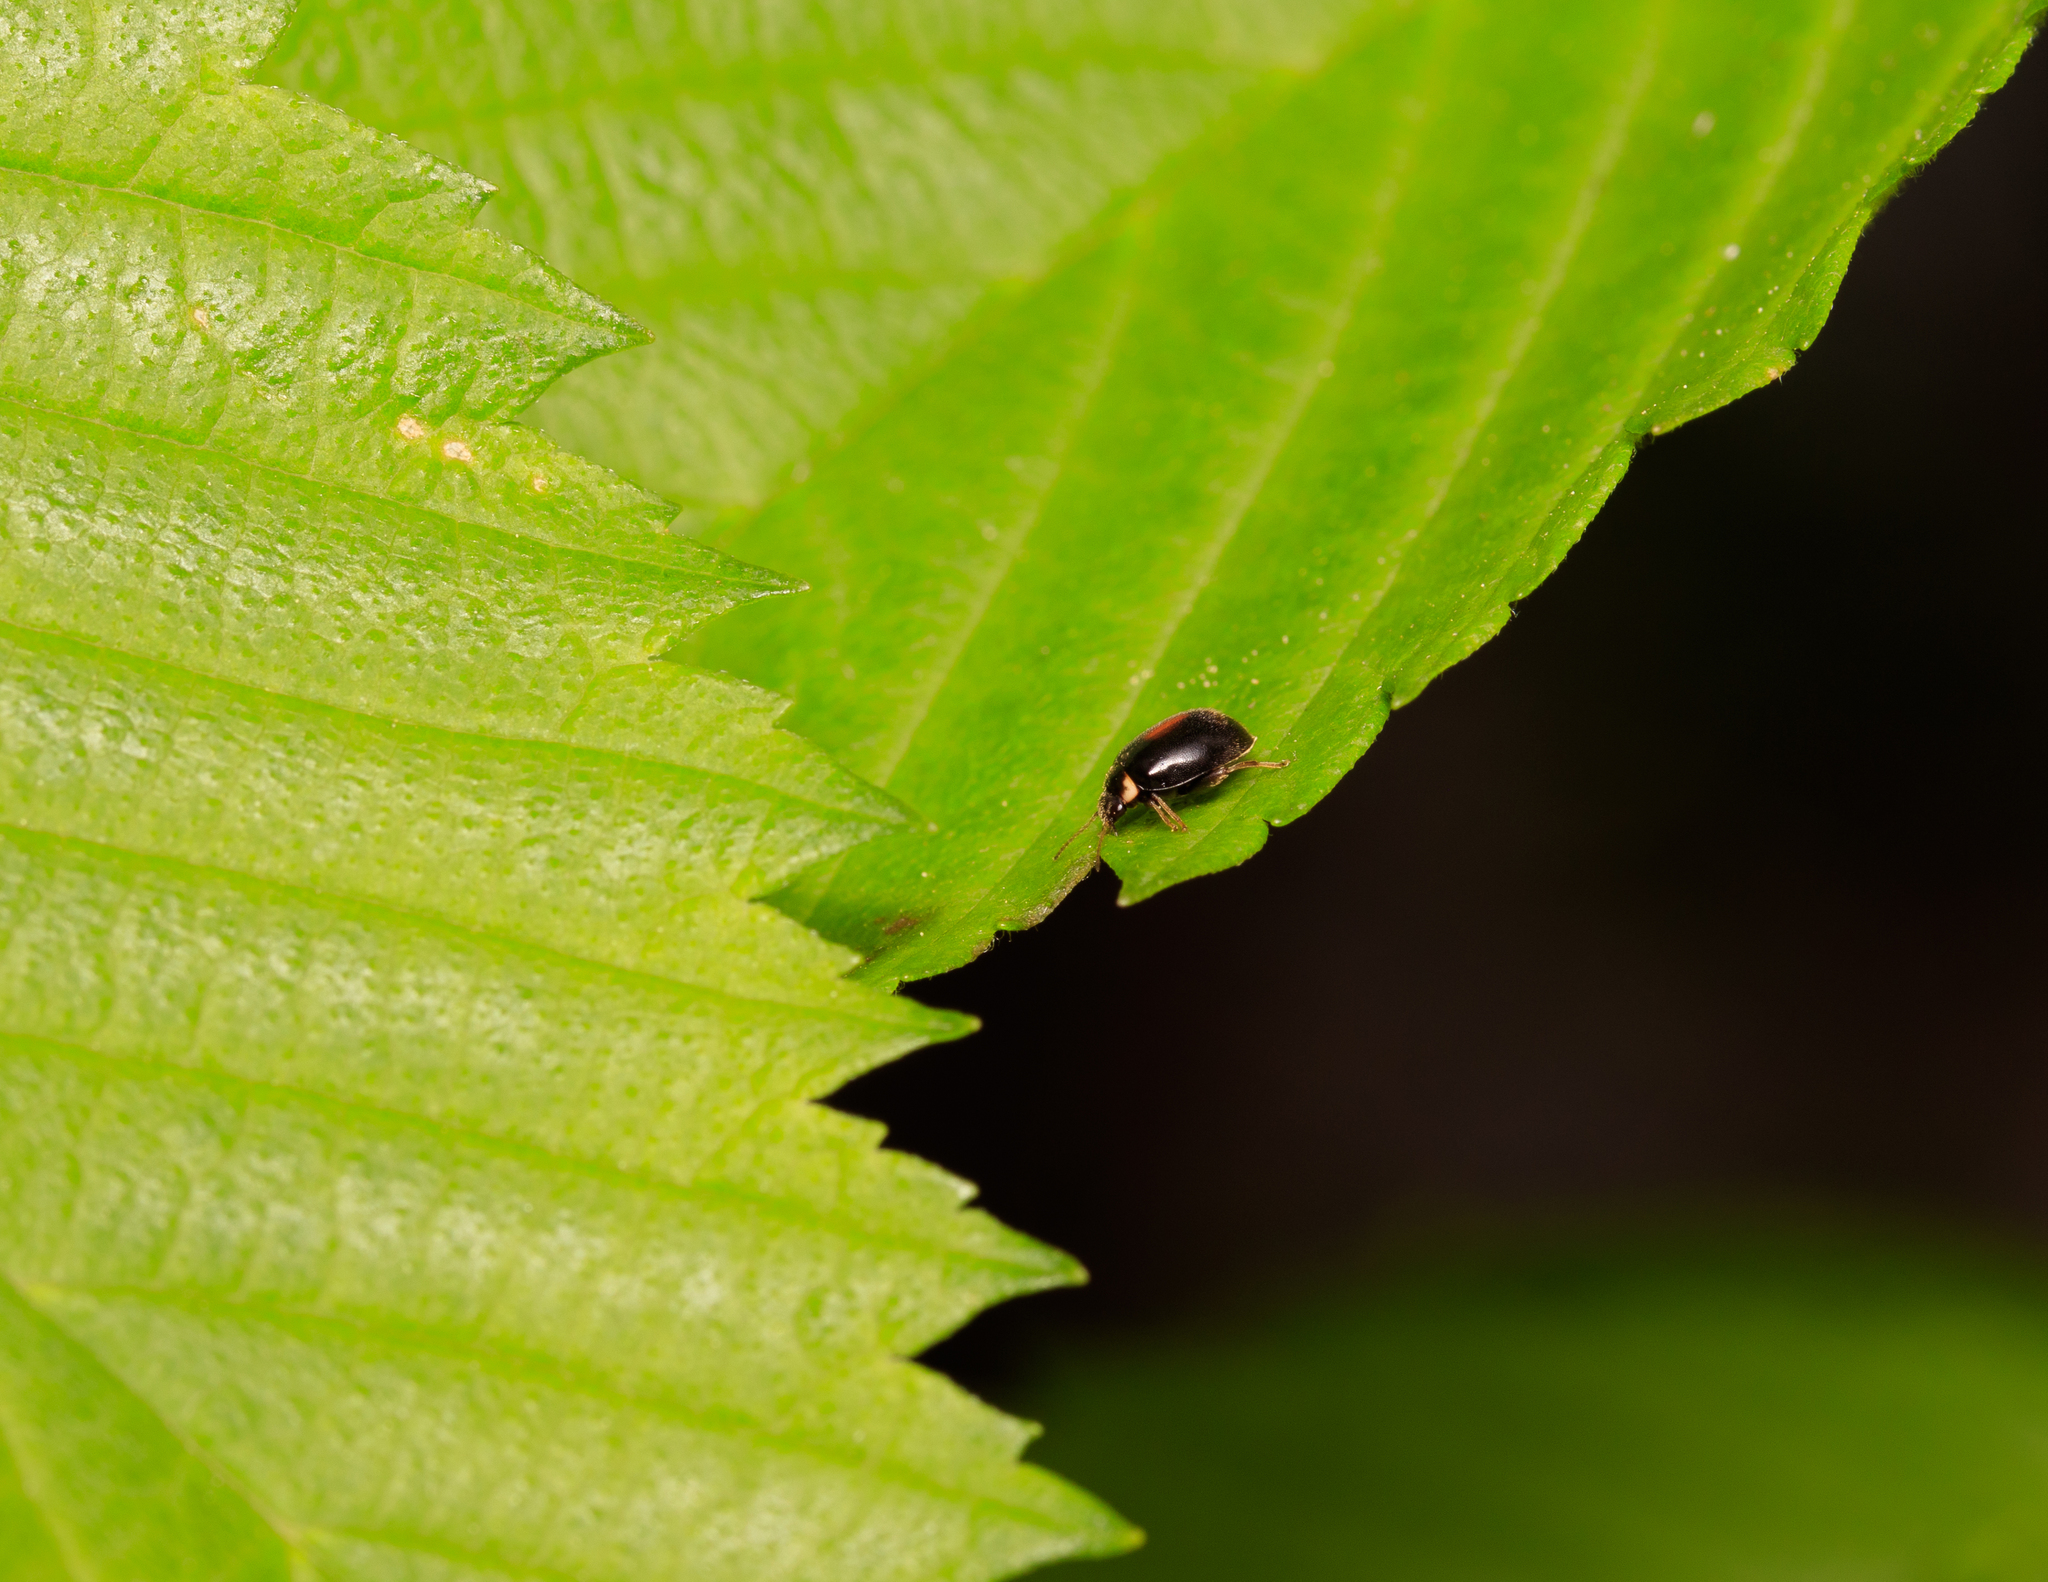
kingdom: Animalia
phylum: Arthropoda
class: Insecta
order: Coleoptera
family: Scirtidae
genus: Scirtes
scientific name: Scirtes orbiculatus
